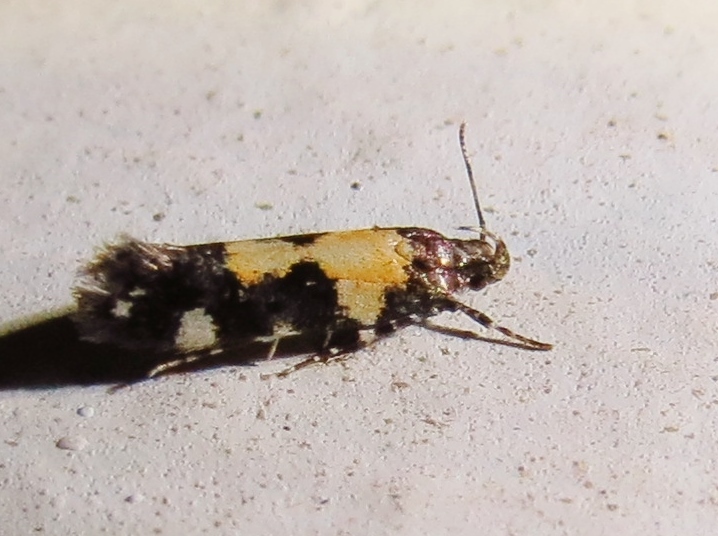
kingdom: Animalia
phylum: Arthropoda
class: Insecta
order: Lepidoptera
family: Gelechiidae
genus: Stegasta
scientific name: Stegasta bosqueella
